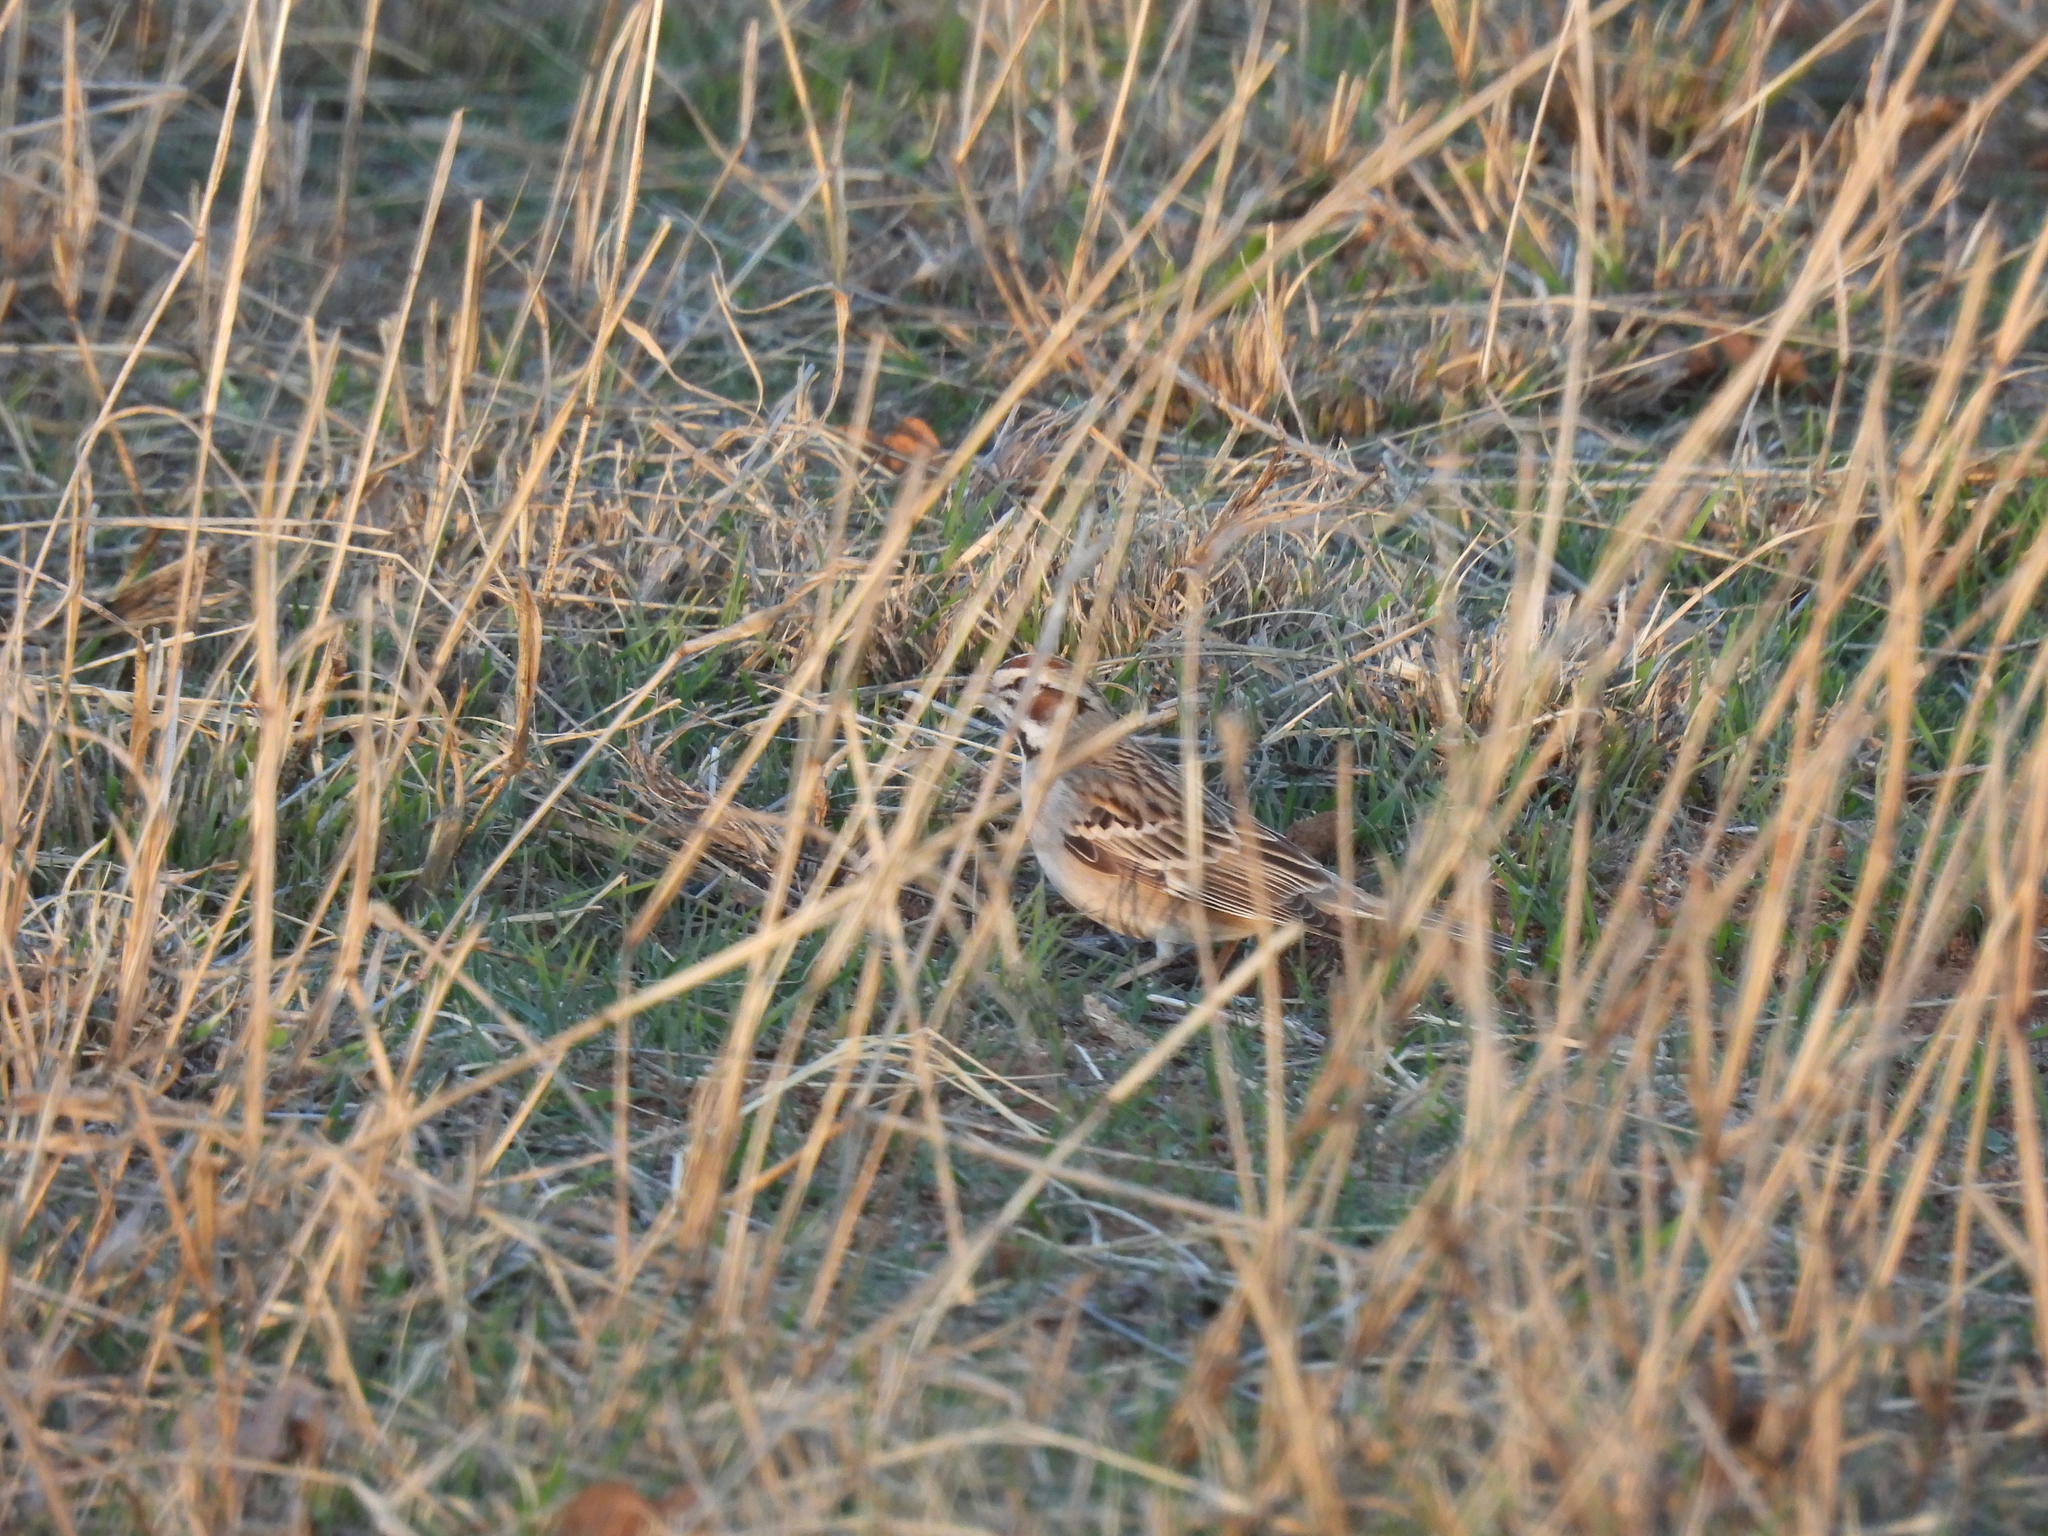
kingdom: Animalia
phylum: Chordata
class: Aves
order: Passeriformes
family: Passerellidae
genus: Chondestes
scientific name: Chondestes grammacus
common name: Lark sparrow
